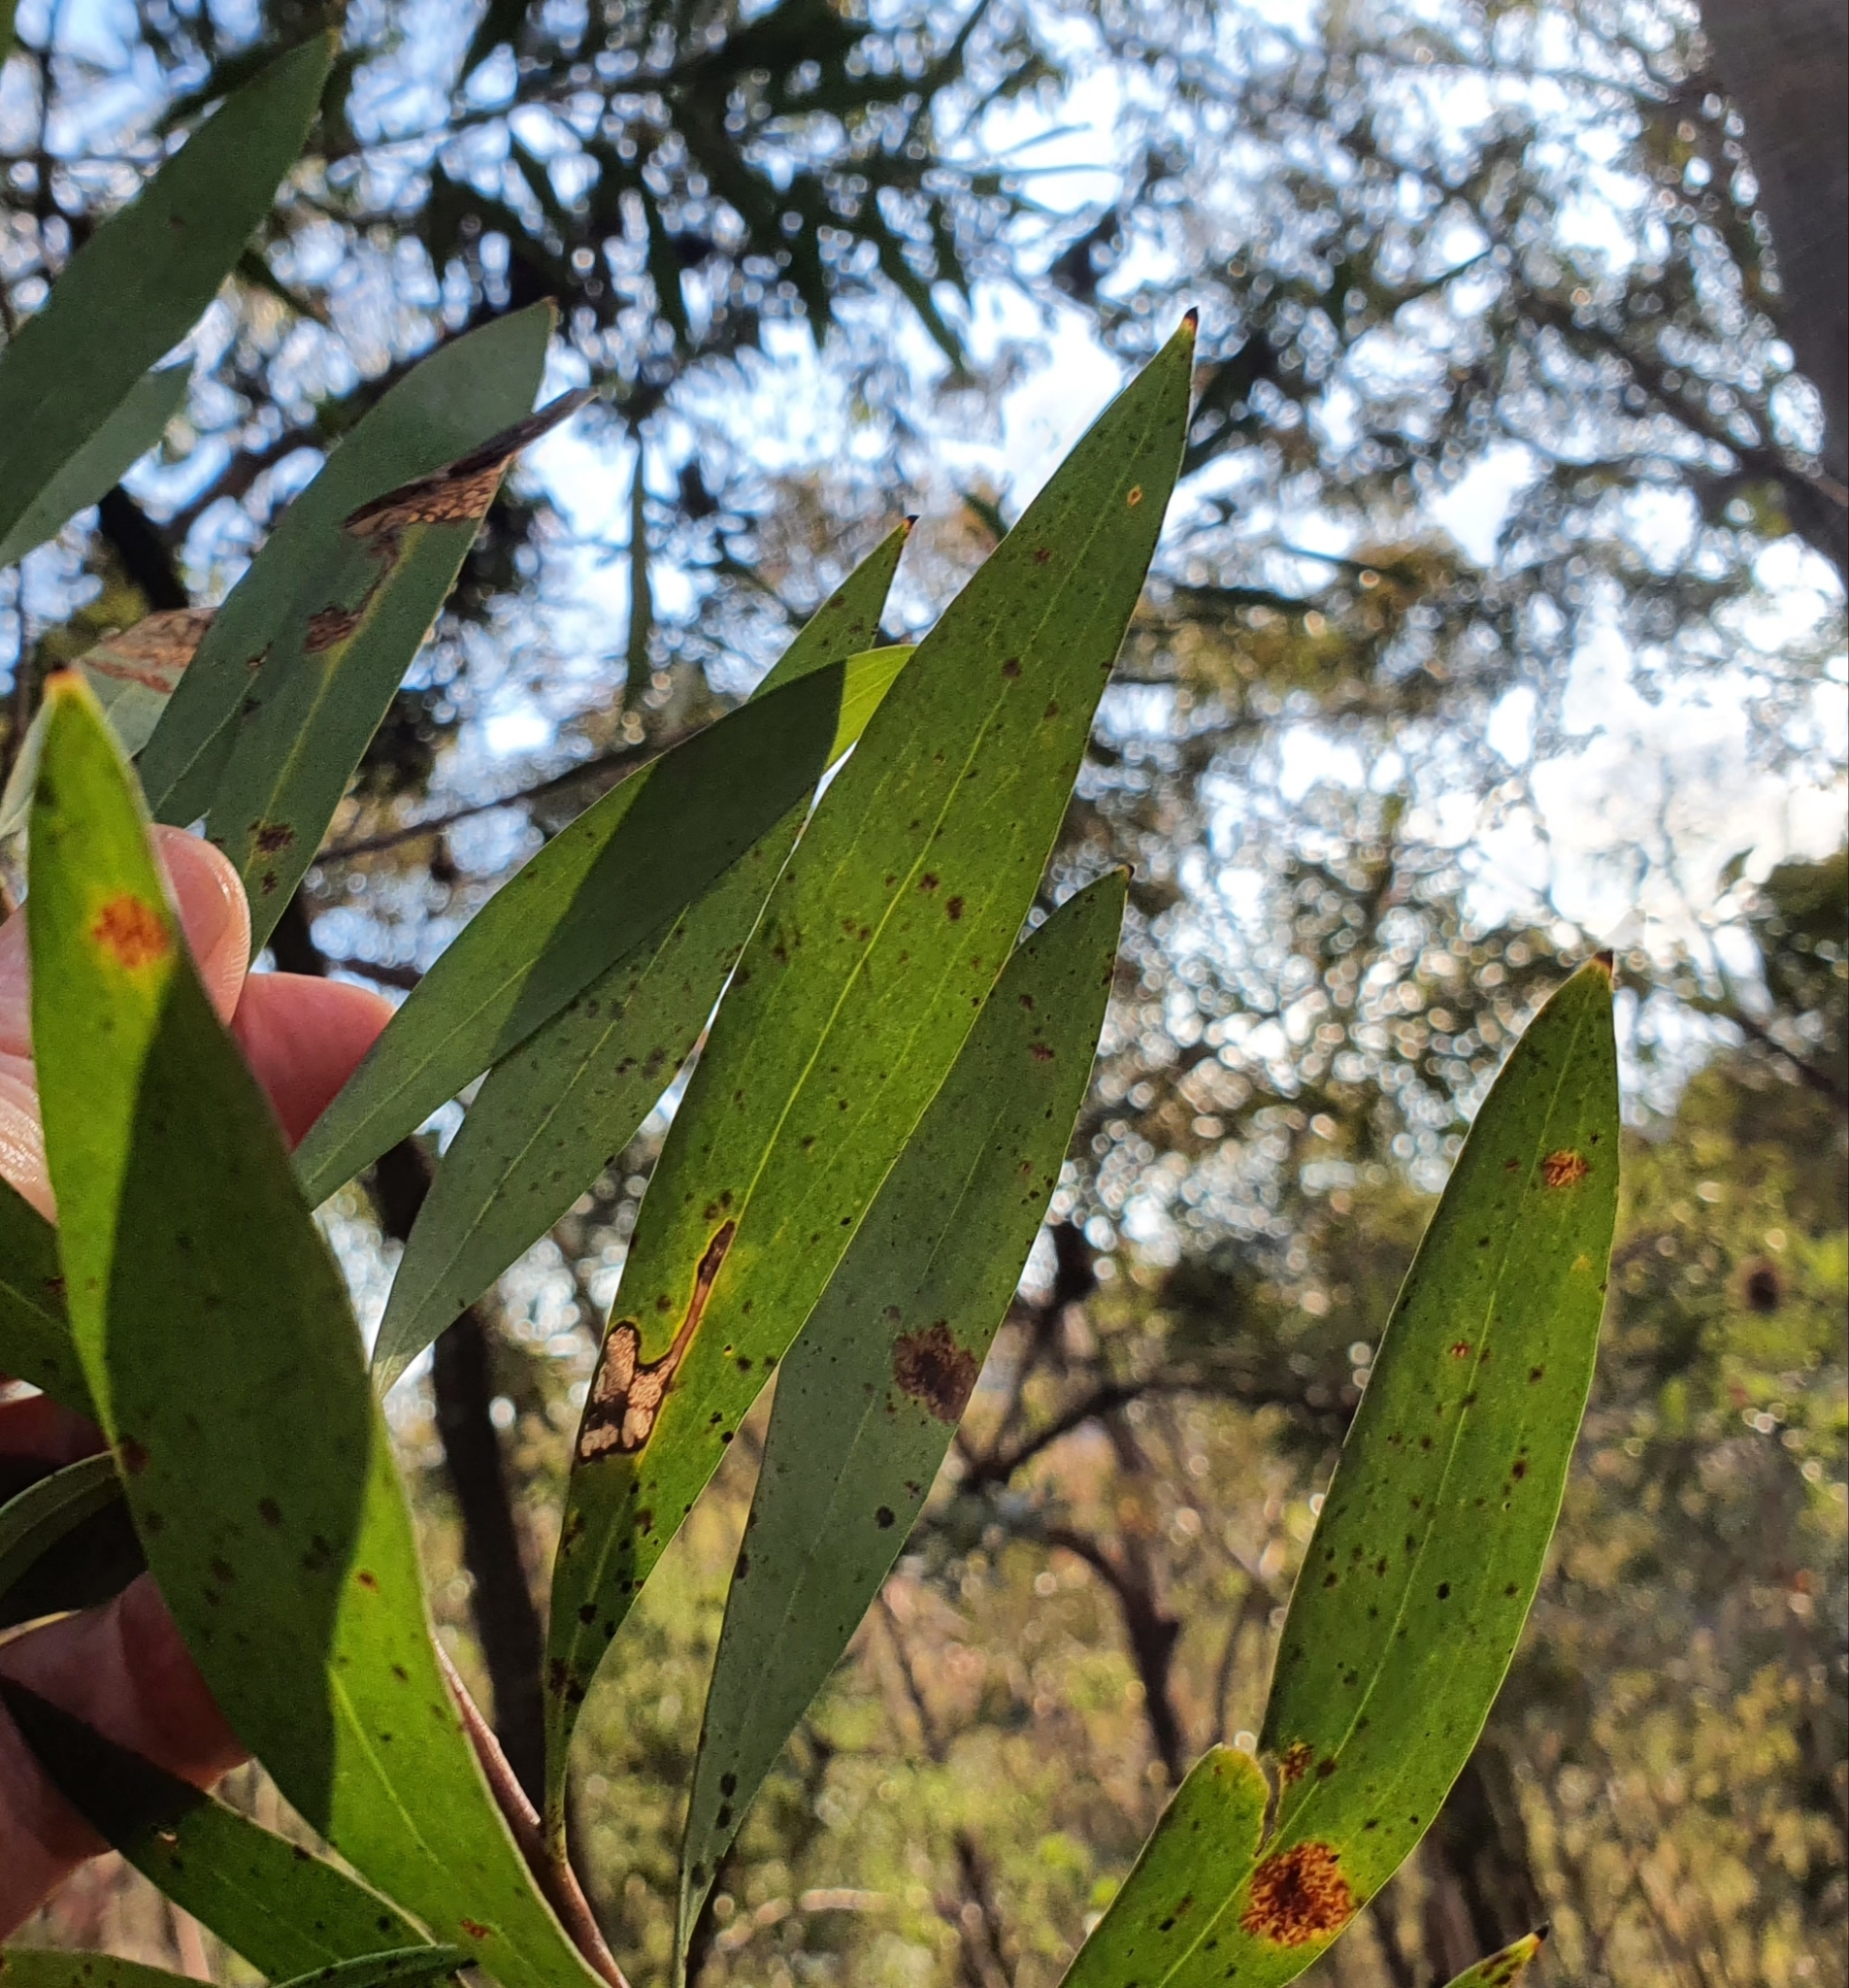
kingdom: Plantae
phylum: Tracheophyta
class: Magnoliopsida
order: Proteales
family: Proteaceae
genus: Hakea
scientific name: Hakea salicifolia
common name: Willow hakea
